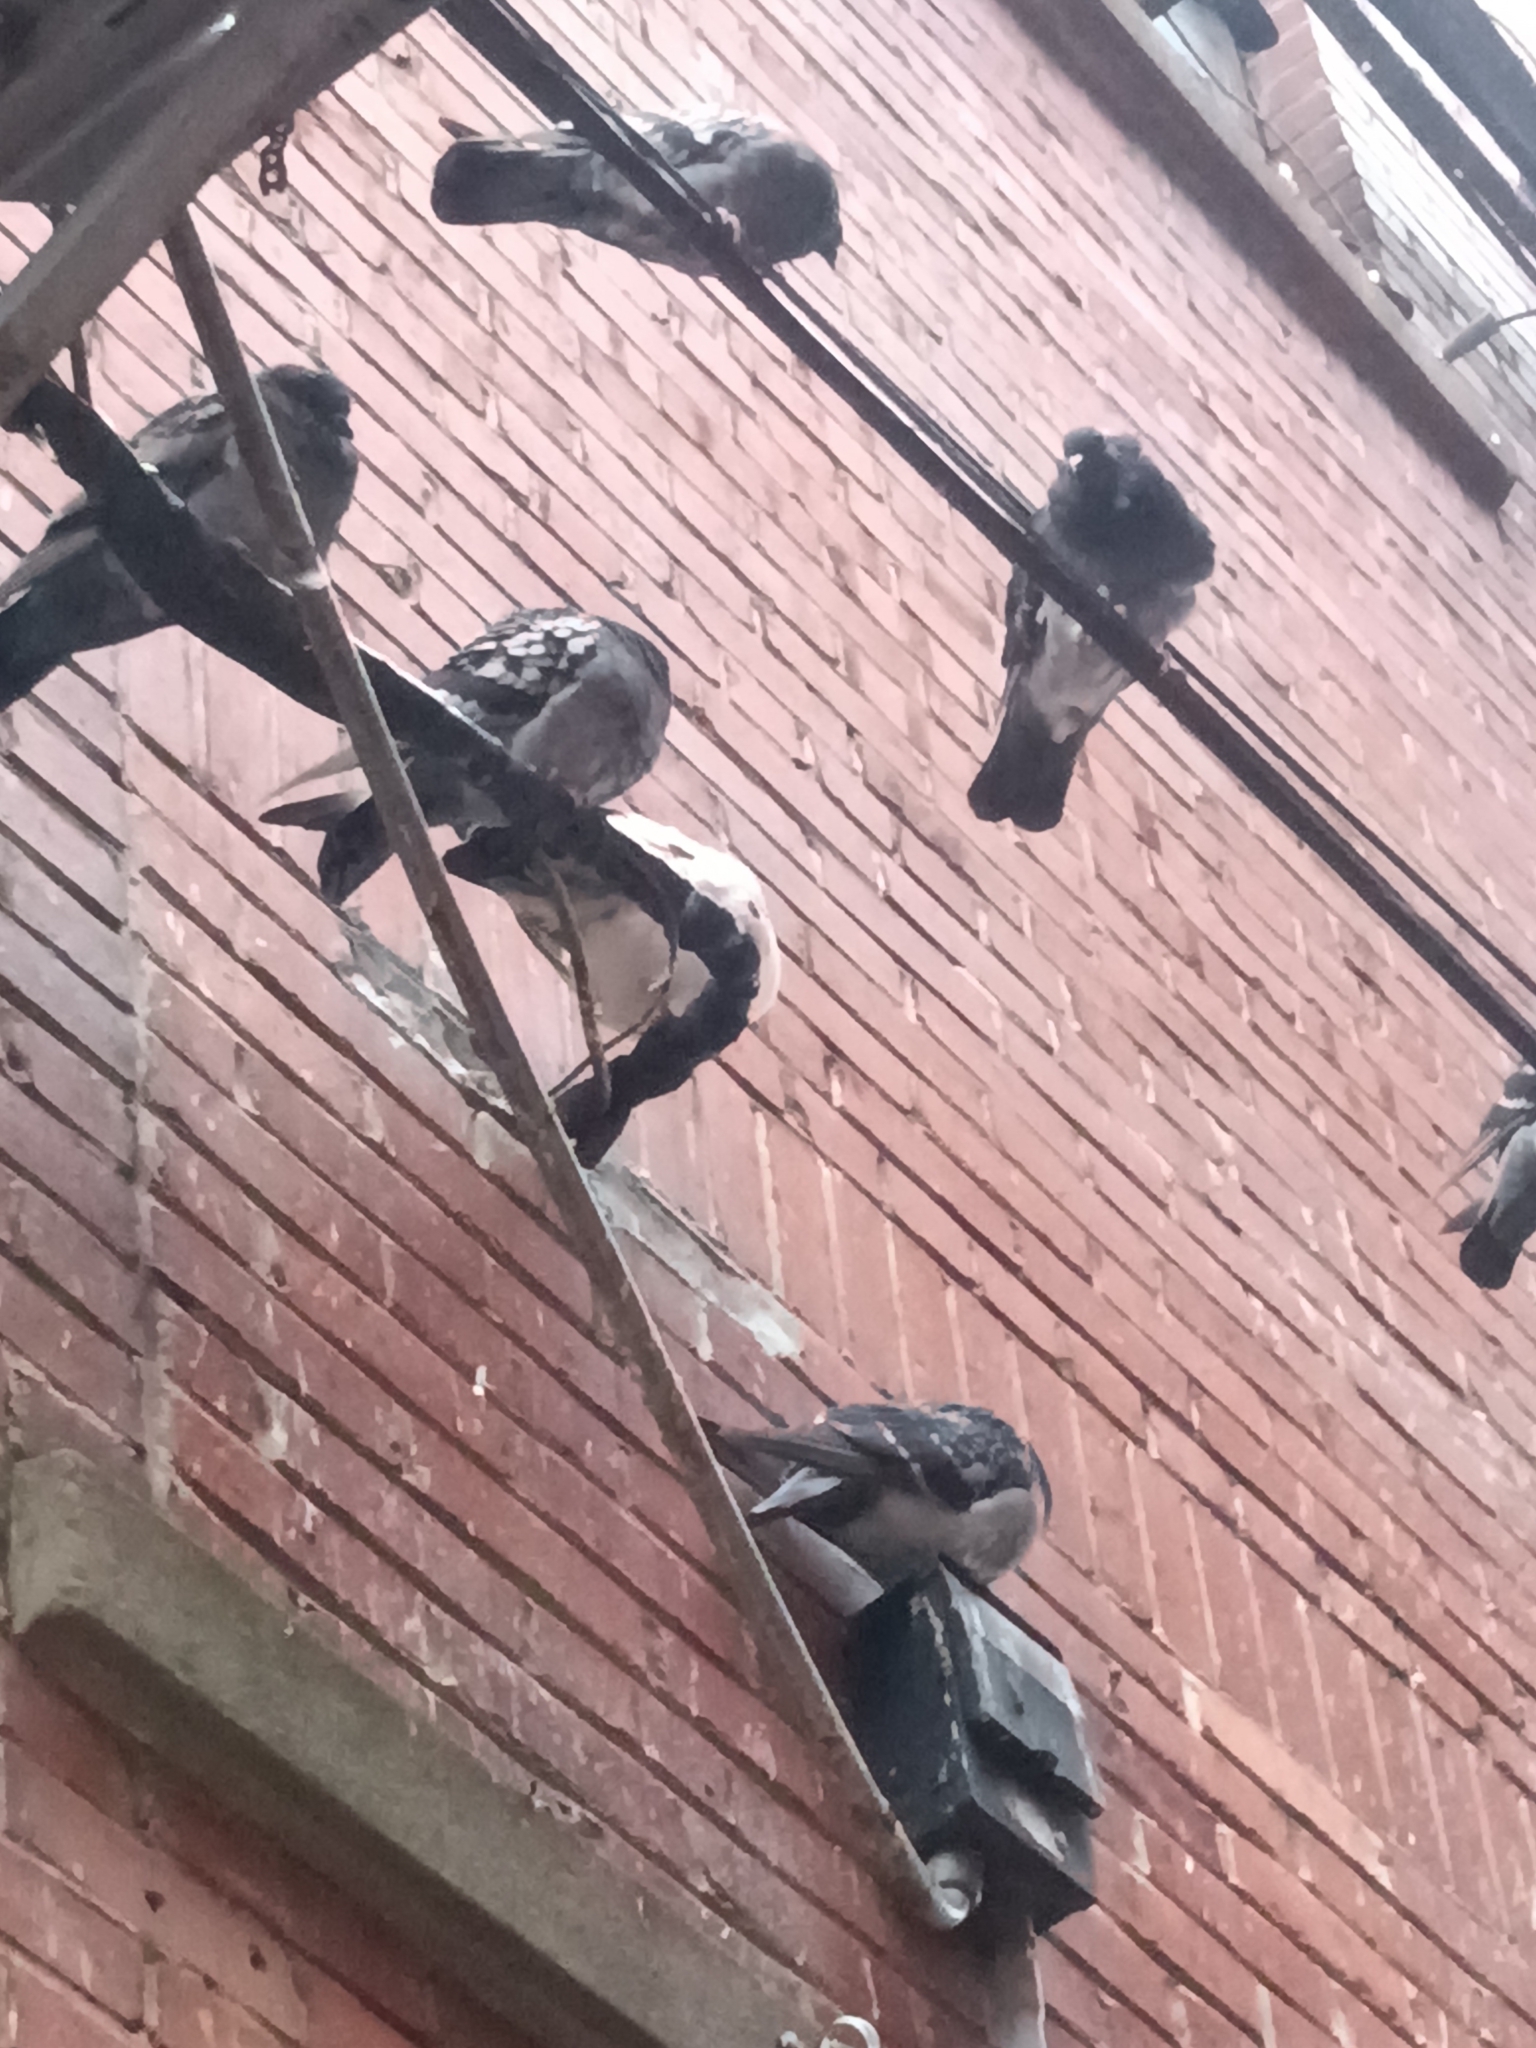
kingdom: Animalia
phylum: Chordata
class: Aves
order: Columbiformes
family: Columbidae
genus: Columba
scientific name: Columba livia
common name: Rock pigeon
